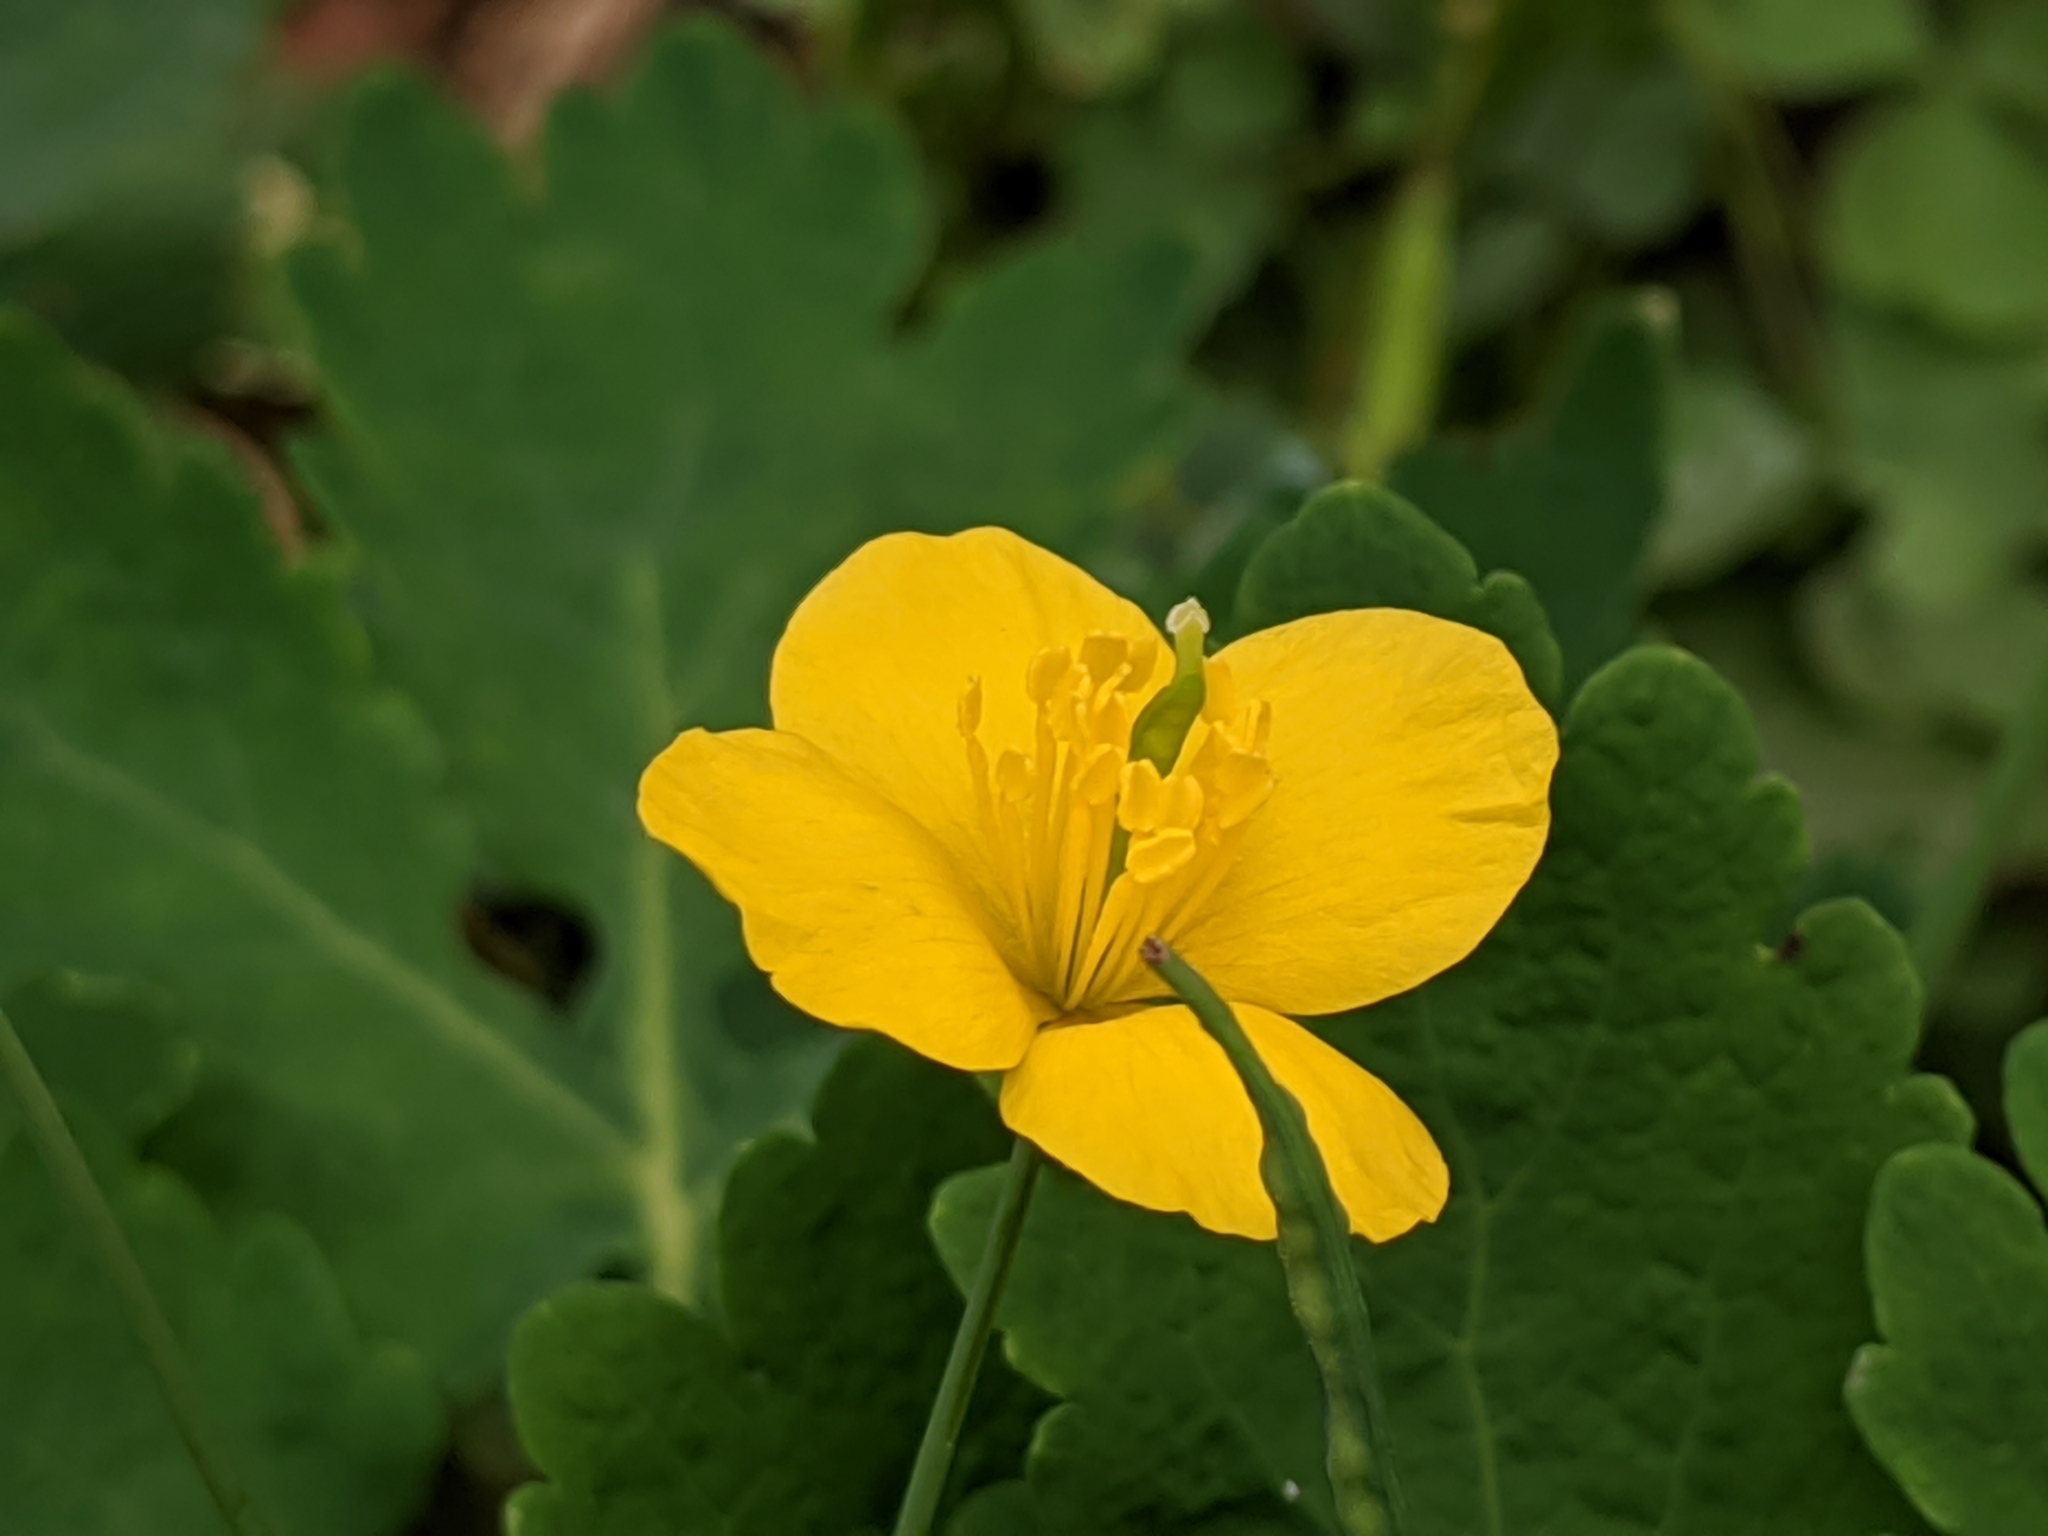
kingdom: Plantae
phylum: Tracheophyta
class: Magnoliopsida
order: Ranunculales
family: Papaveraceae
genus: Chelidonium
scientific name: Chelidonium majus
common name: Greater celandine
